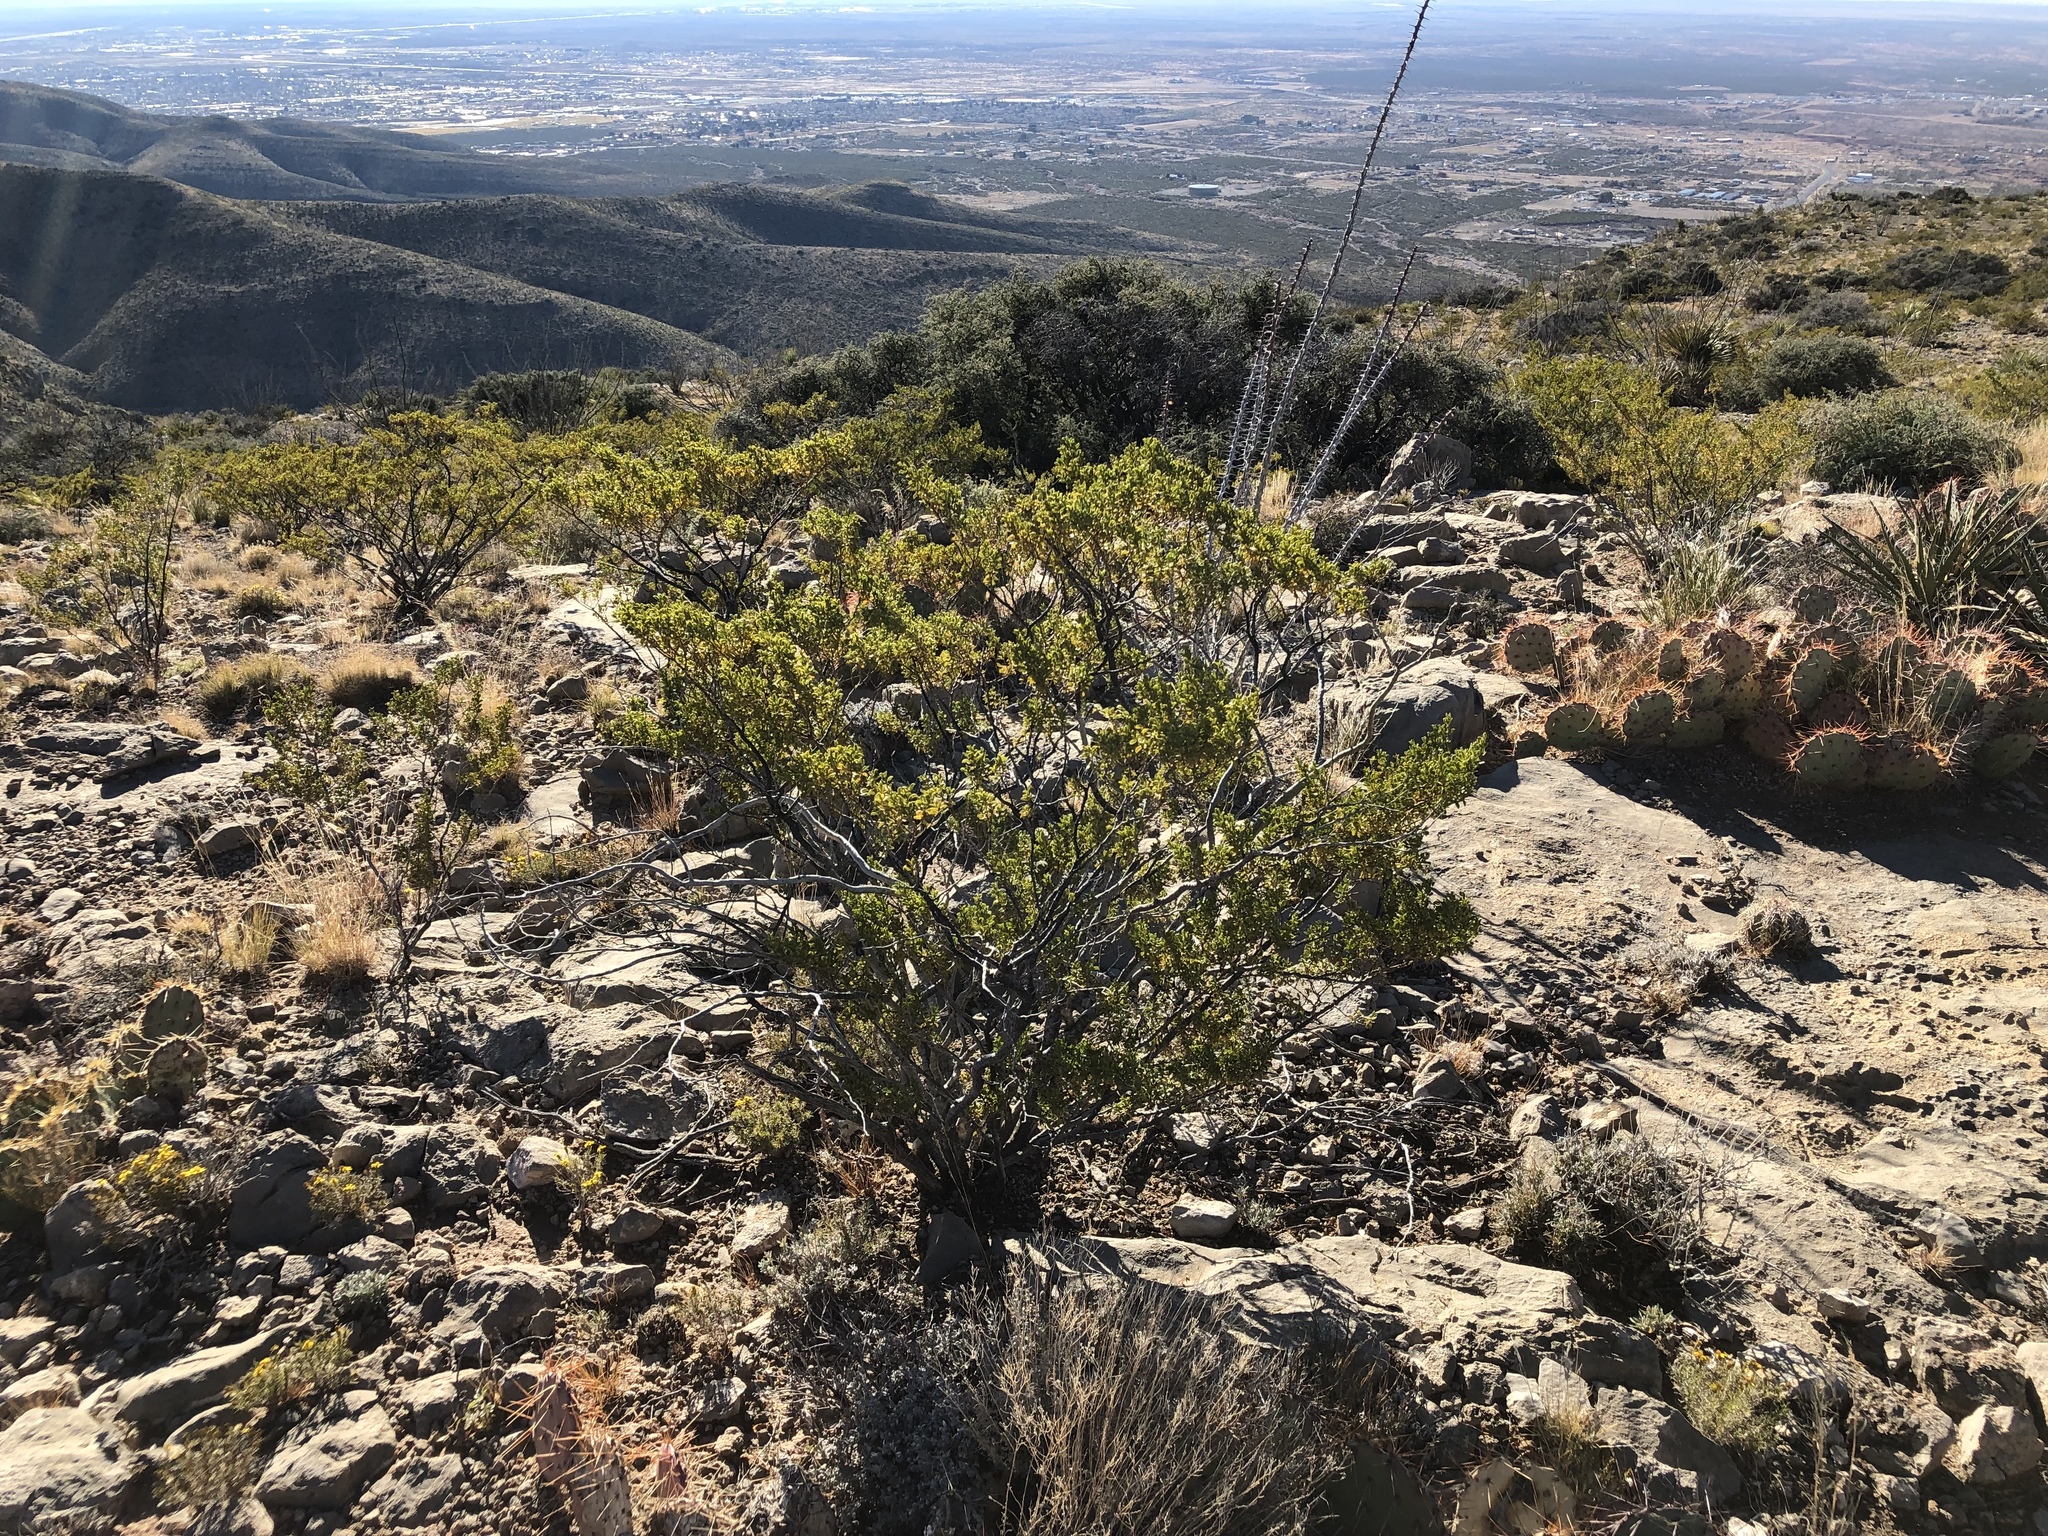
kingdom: Plantae
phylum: Tracheophyta
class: Magnoliopsida
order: Zygophyllales
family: Zygophyllaceae
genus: Larrea
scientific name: Larrea tridentata
